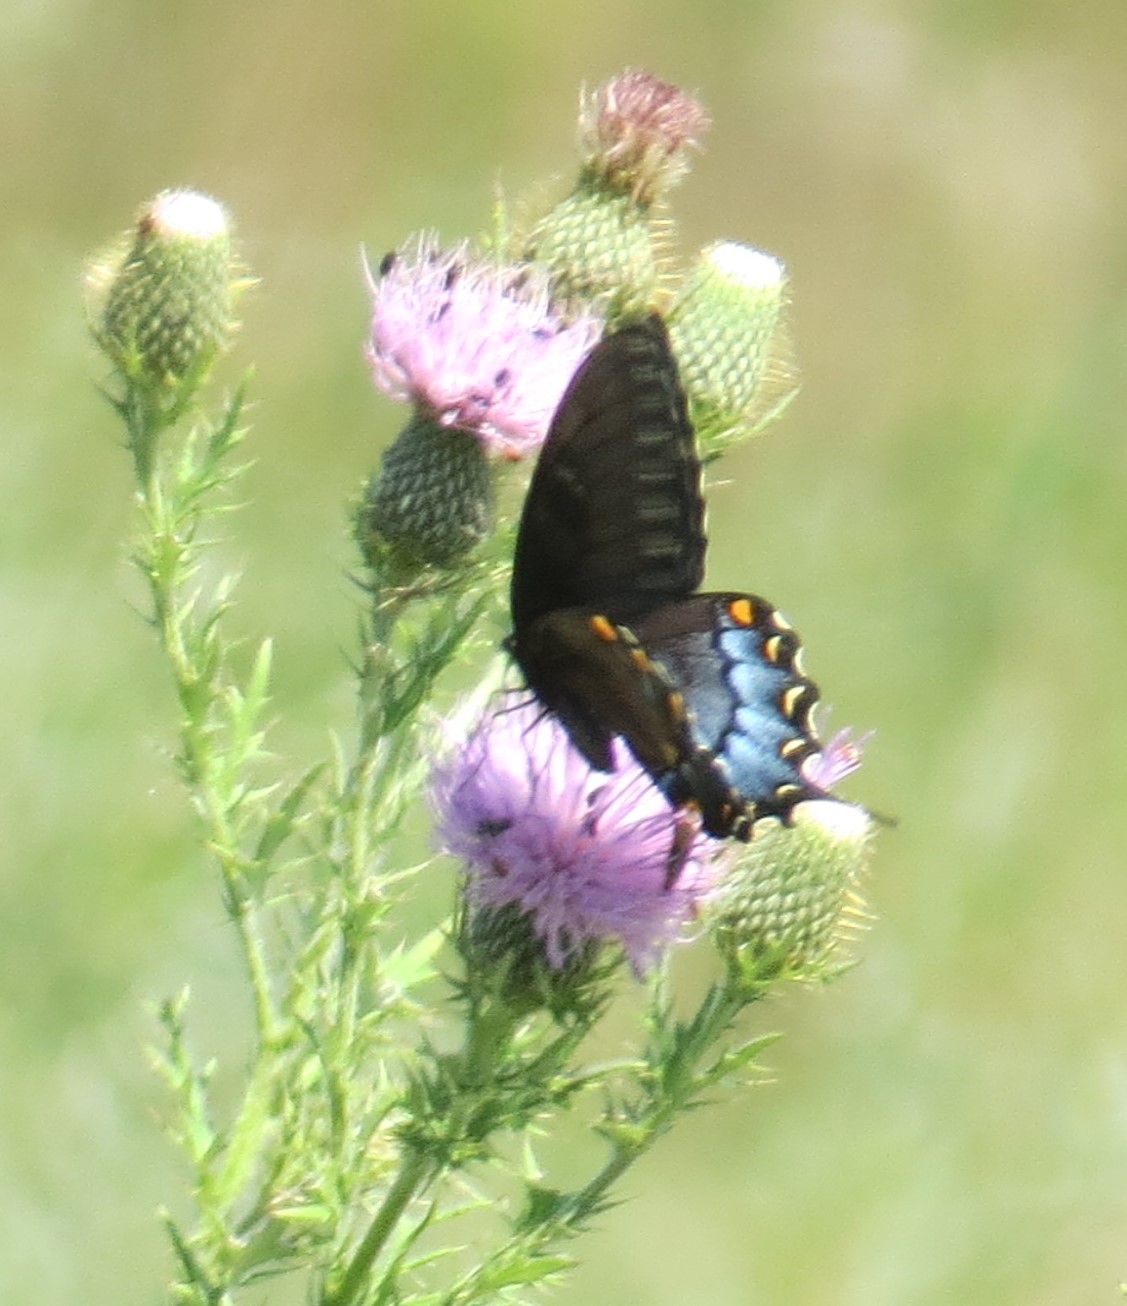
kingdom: Animalia
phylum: Arthropoda
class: Insecta
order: Lepidoptera
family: Papilionidae
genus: Papilio
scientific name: Papilio glaucus
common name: Tiger swallowtail
